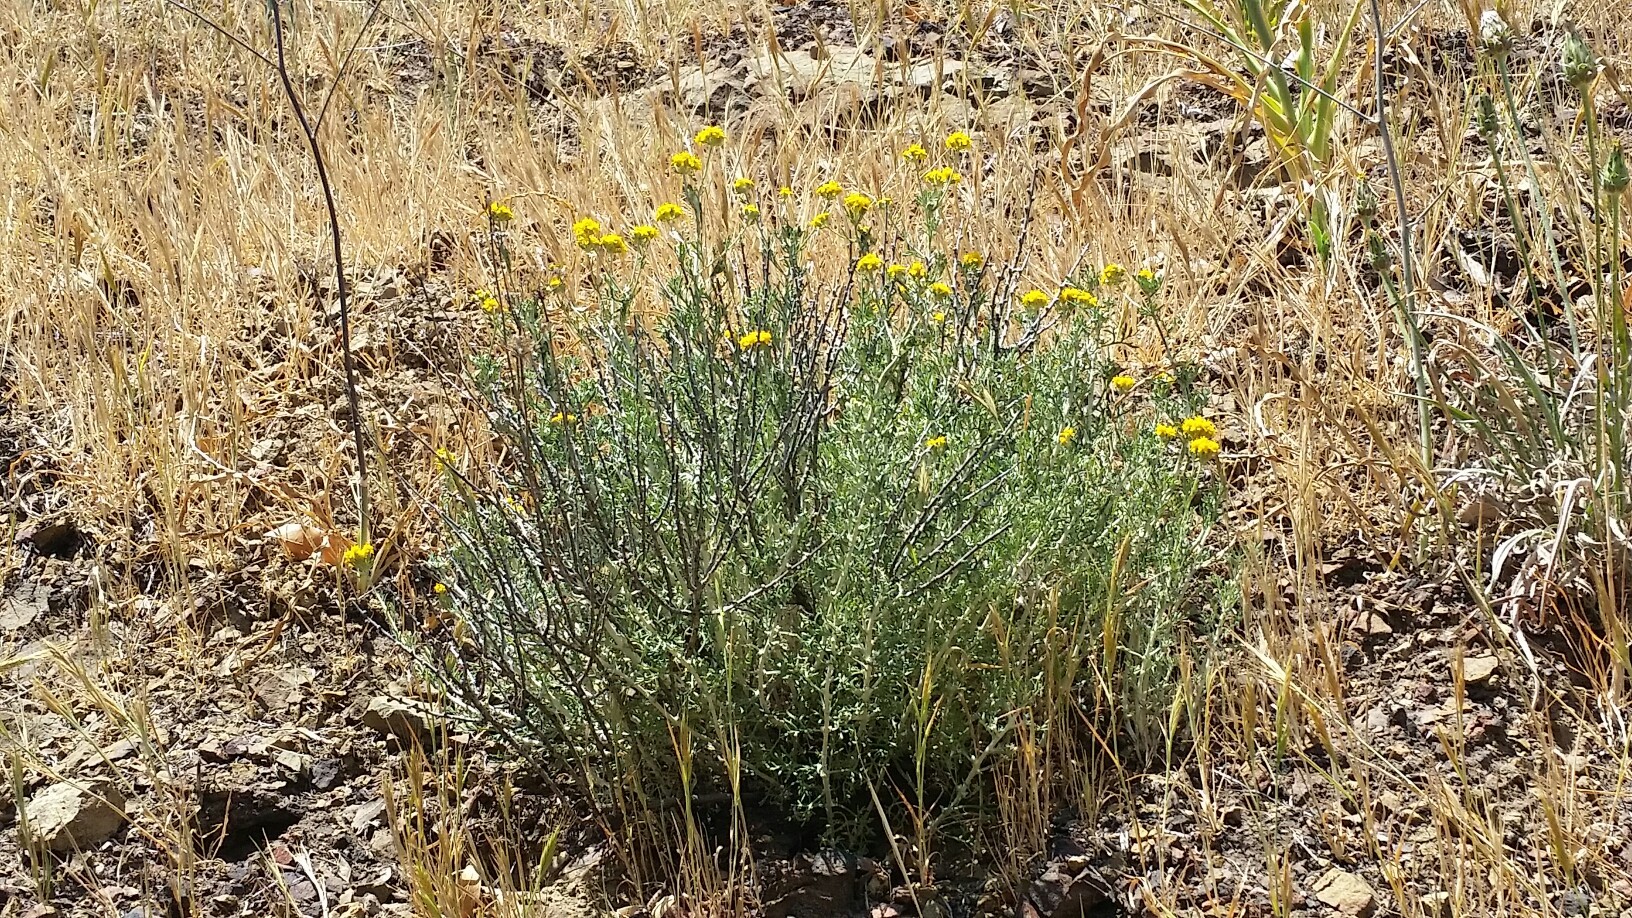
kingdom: Plantae
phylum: Tracheophyta
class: Magnoliopsida
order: Asterales
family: Asteraceae
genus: Eriophyllum
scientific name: Eriophyllum confertiflorum
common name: Golden-yarrow
